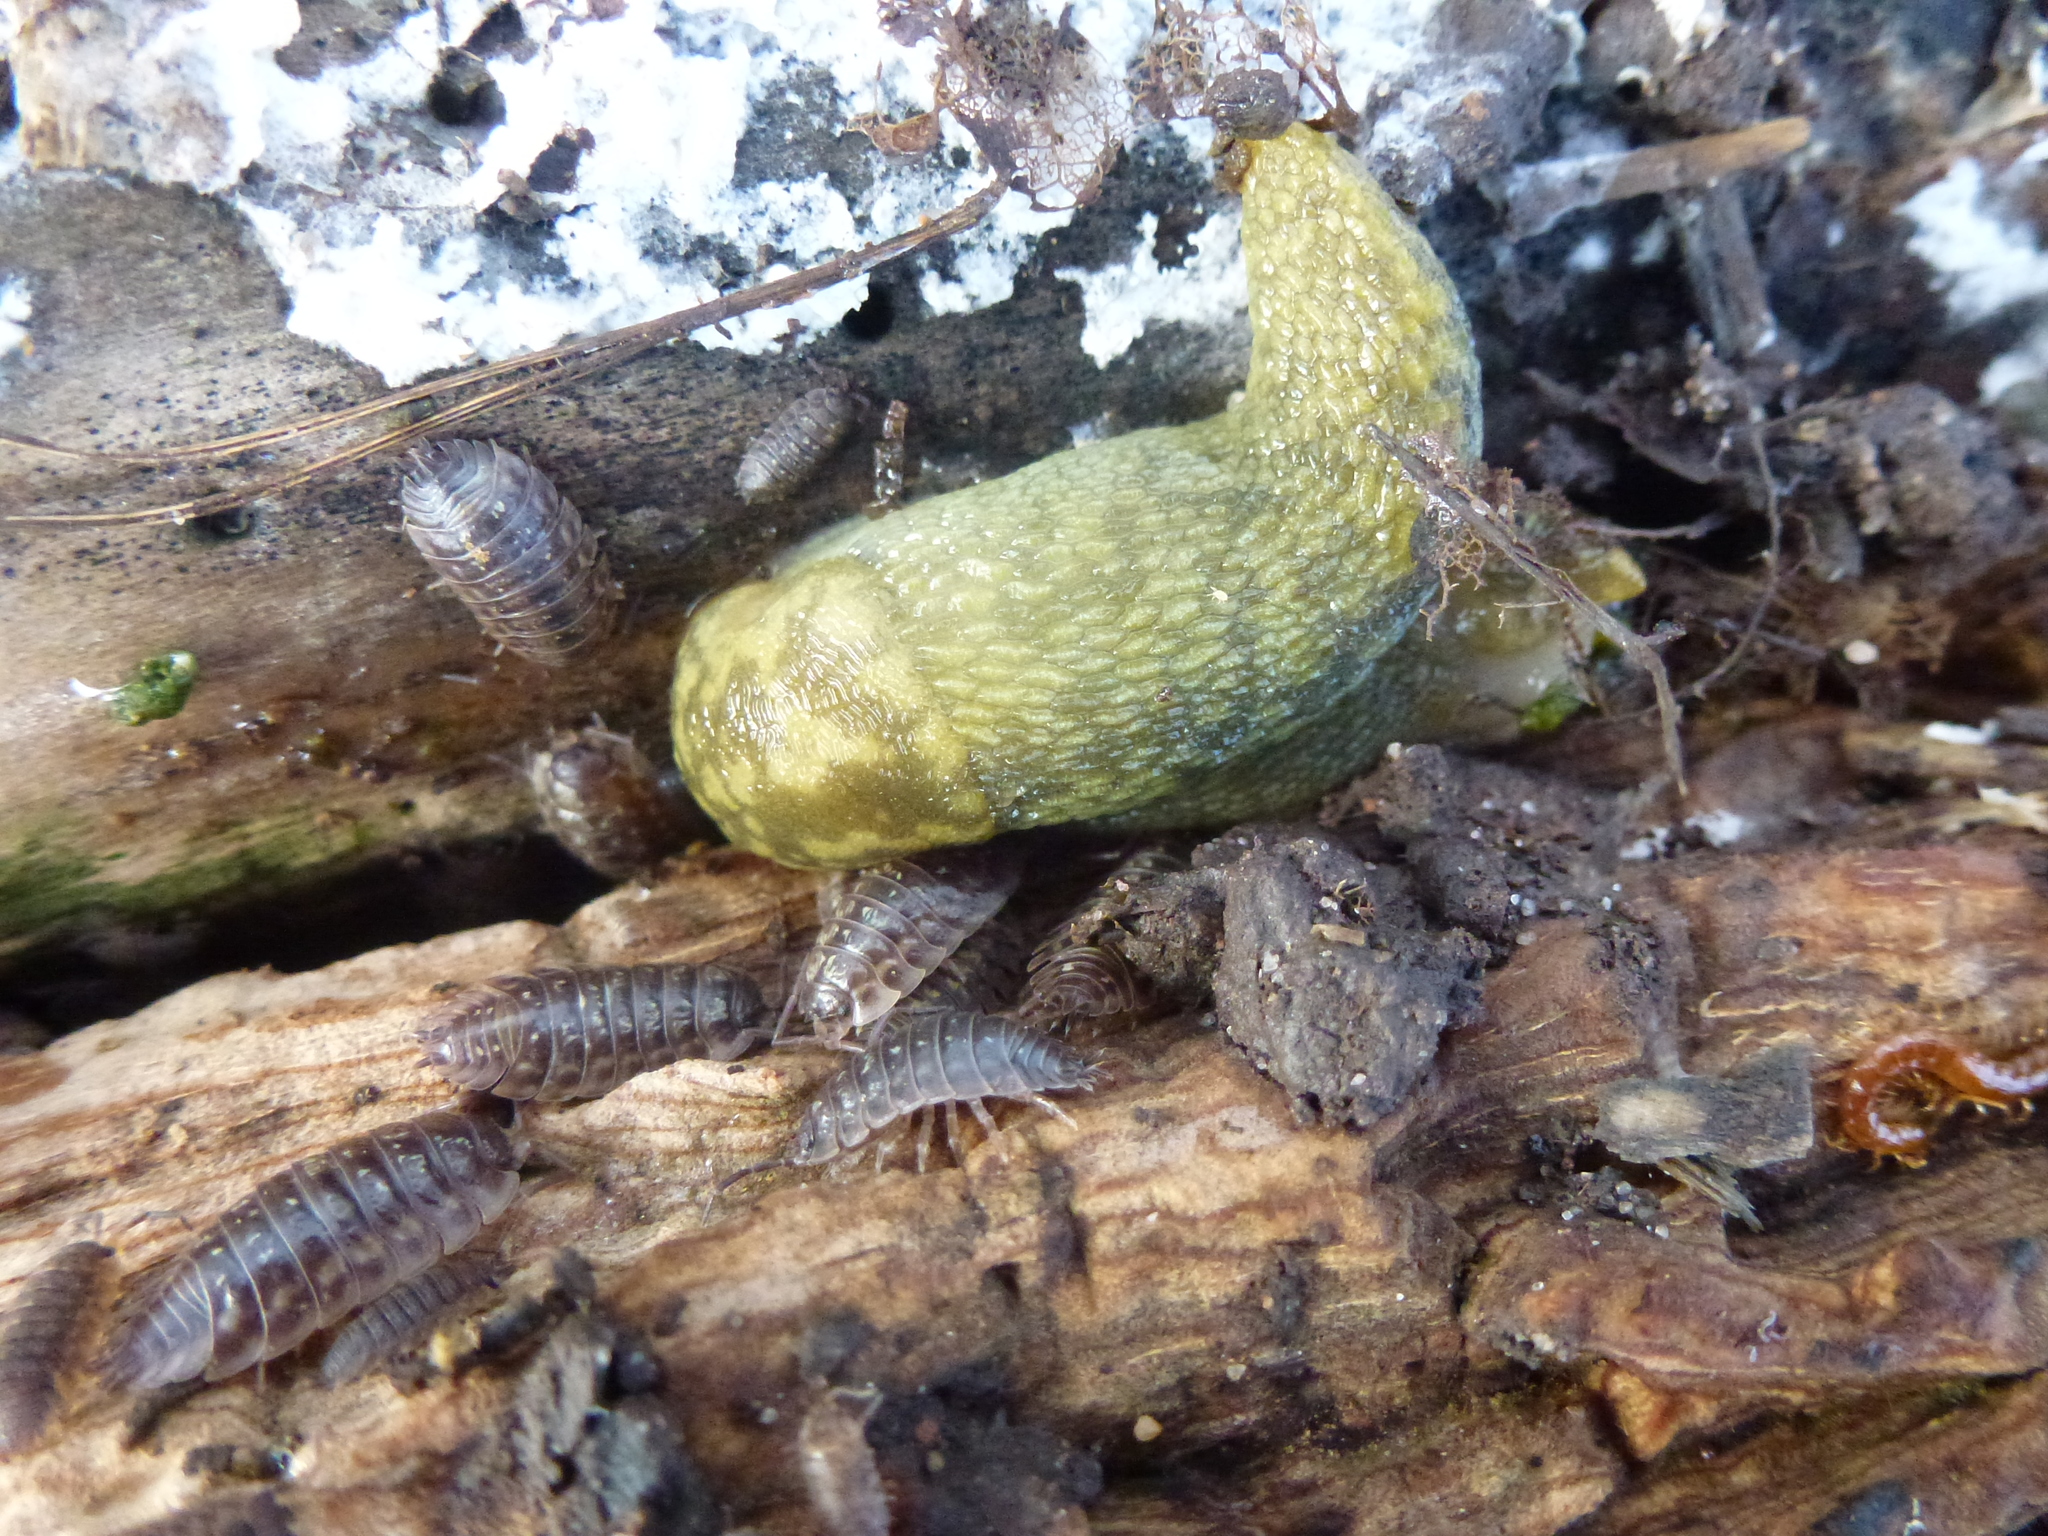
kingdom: Animalia
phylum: Mollusca
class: Gastropoda
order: Stylommatophora
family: Limacidae
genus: Limacus
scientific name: Limacus maculatus
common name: Irish yellow slug
